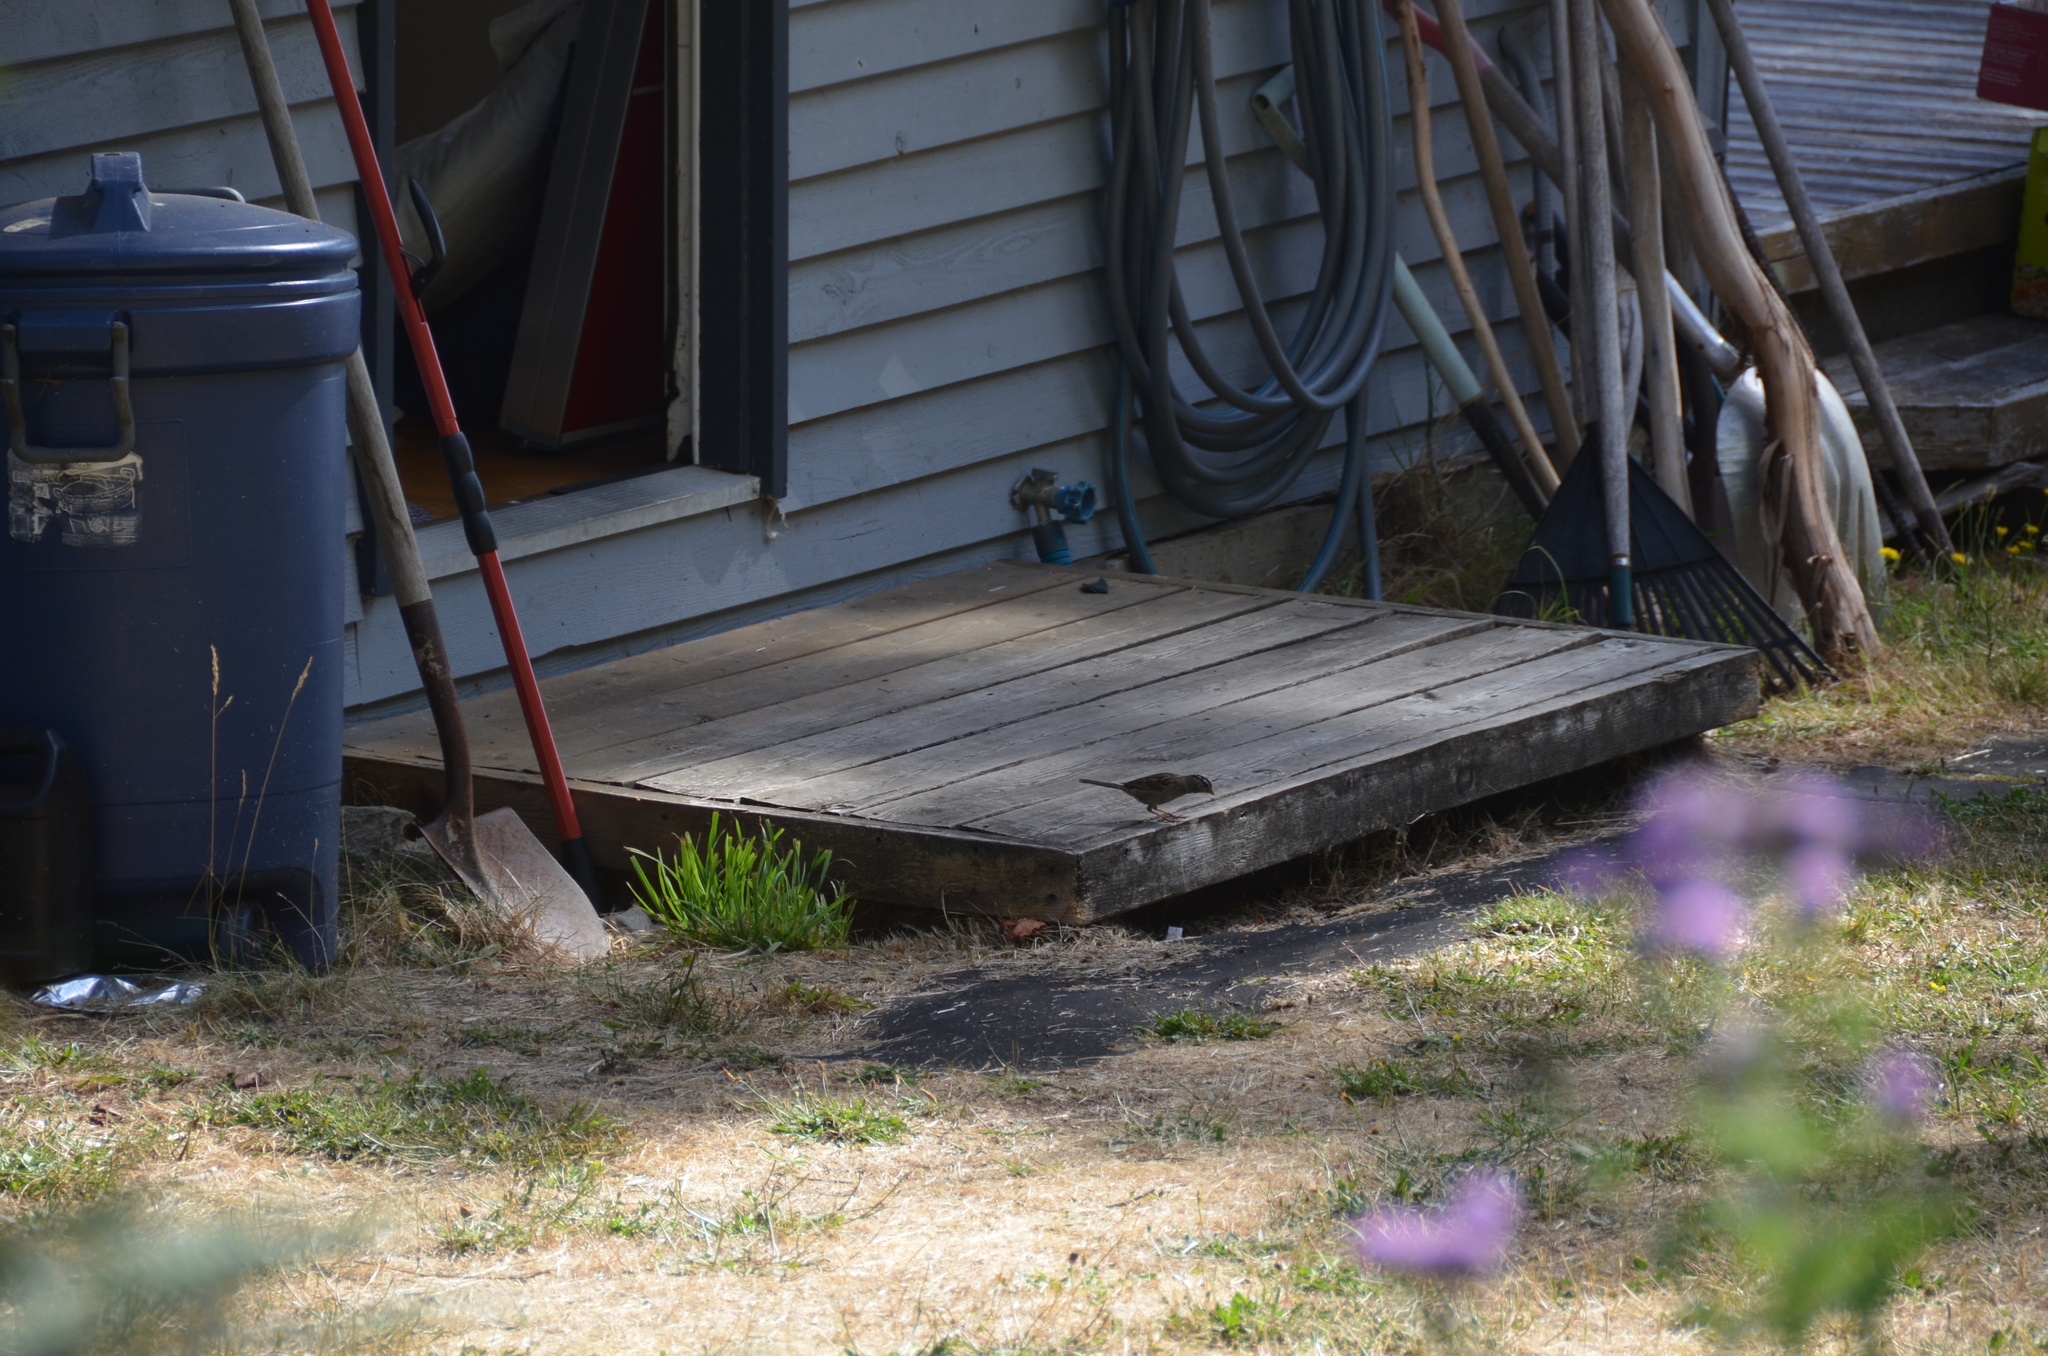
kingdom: Animalia
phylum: Chordata
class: Aves
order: Passeriformes
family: Passerellidae
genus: Zonotrichia
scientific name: Zonotrichia leucophrys
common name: White-crowned sparrow
